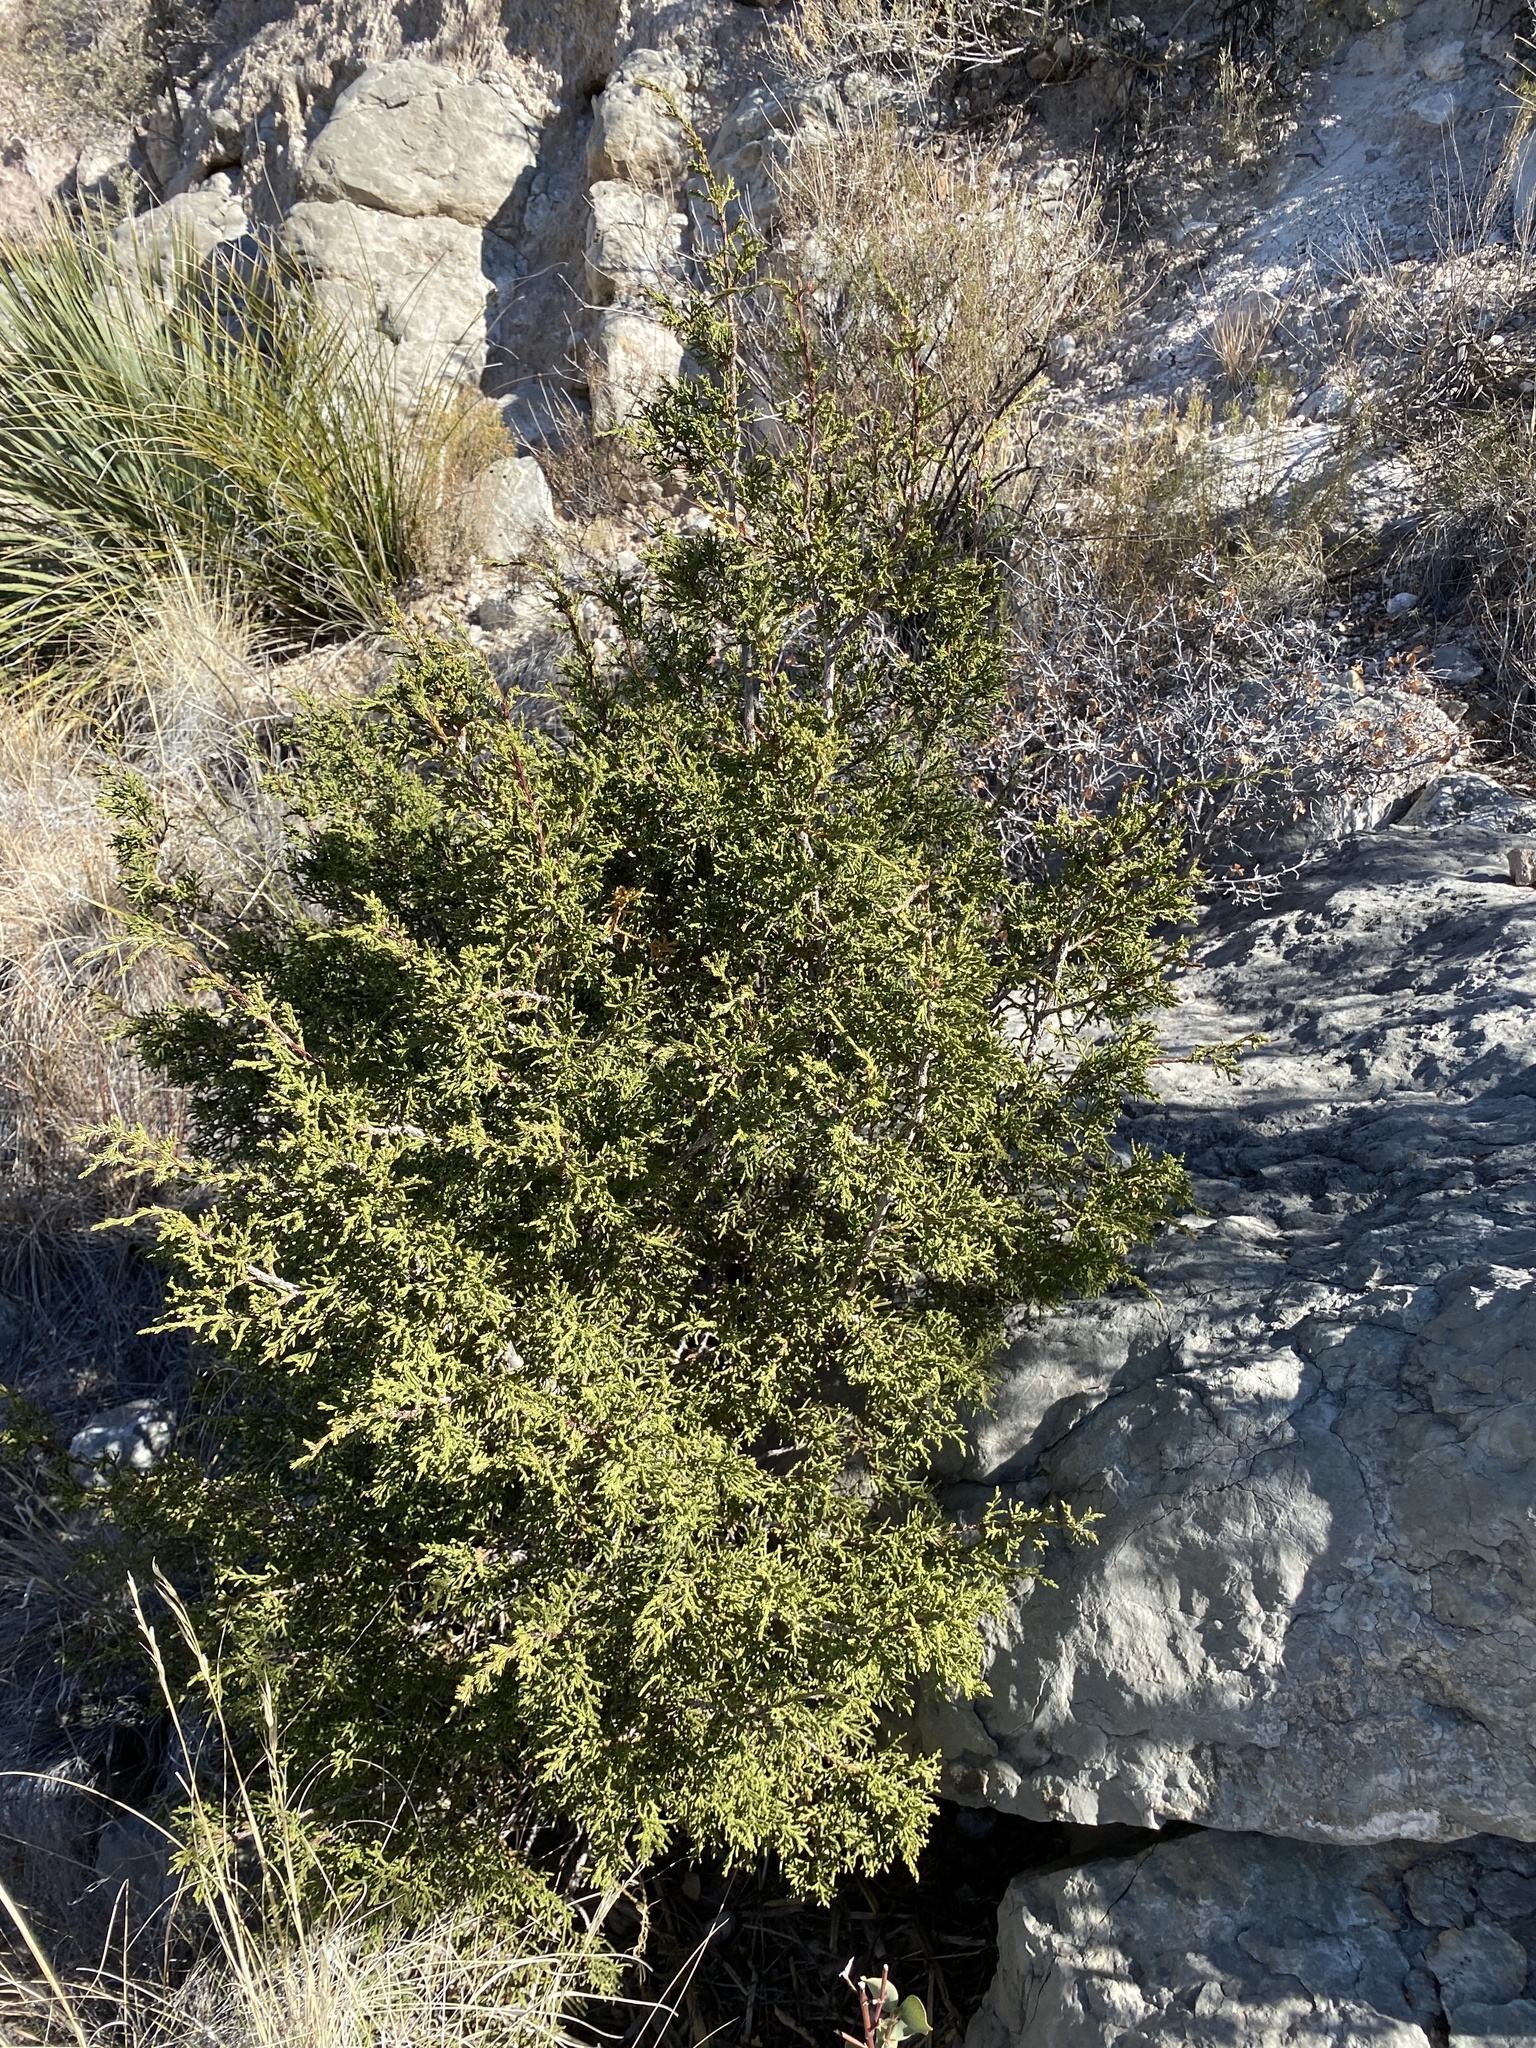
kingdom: Plantae
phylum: Tracheophyta
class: Pinopsida
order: Pinales
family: Cupressaceae
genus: Juniperus
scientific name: Juniperus monosperma
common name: One-seed juniper
